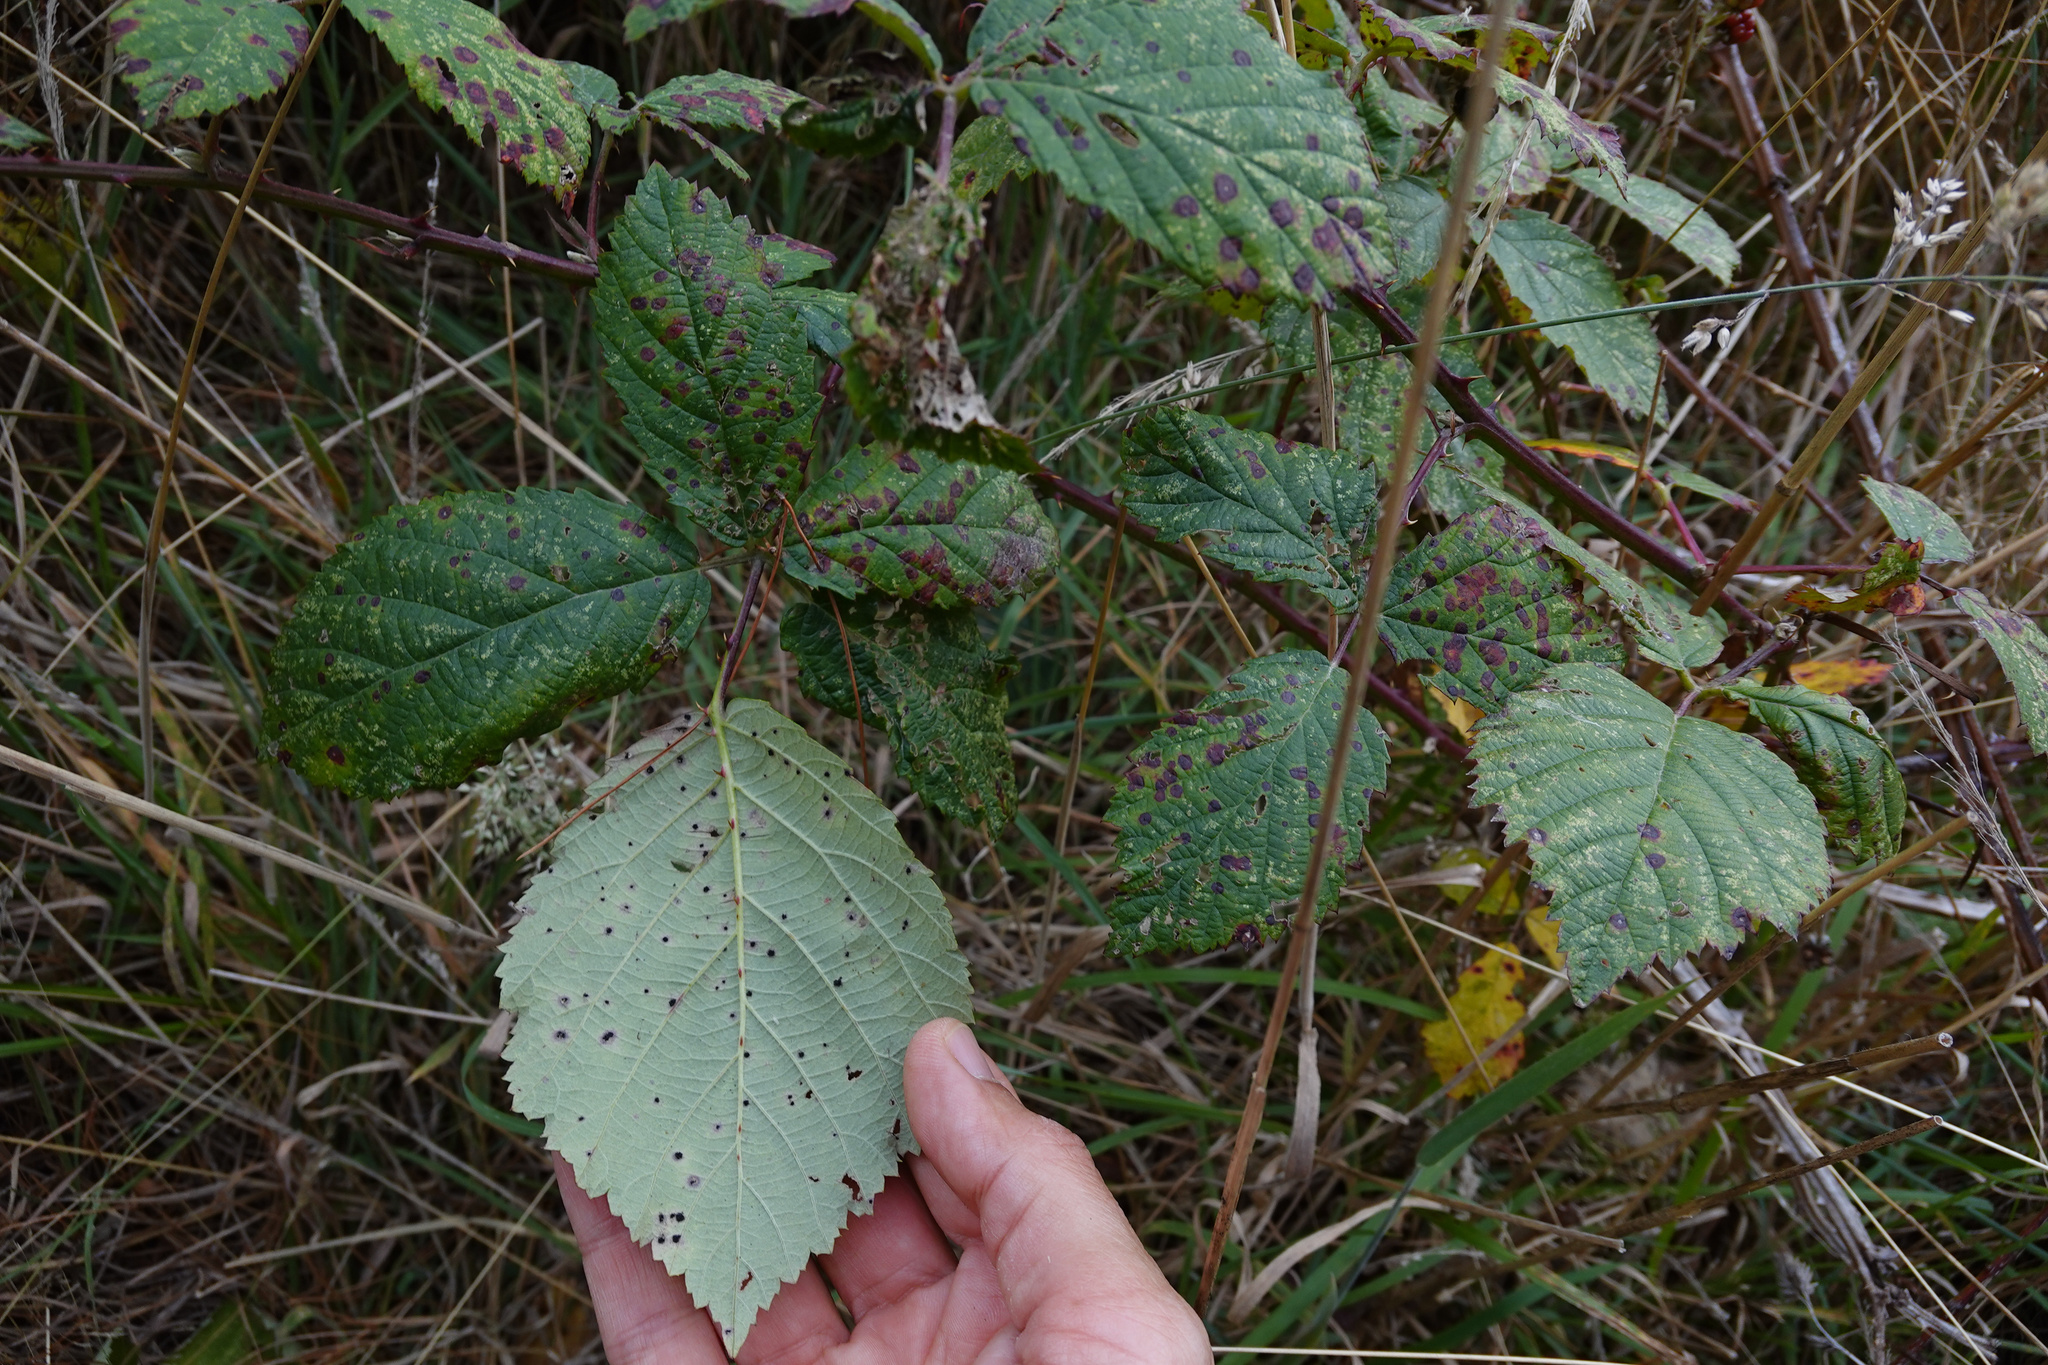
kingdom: Fungi
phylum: Basidiomycota
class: Pucciniomycetes
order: Pucciniales
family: Phragmidiaceae
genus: Phragmidium
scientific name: Phragmidium violaceum
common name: Violet bramble rust
